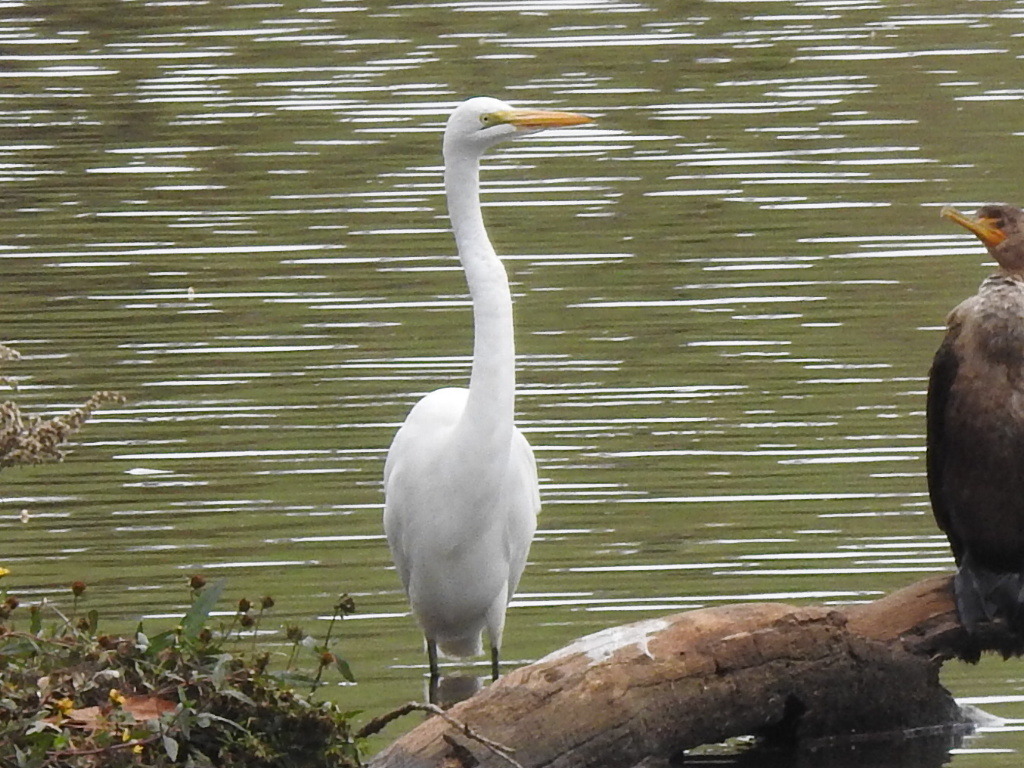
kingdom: Animalia
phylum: Chordata
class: Aves
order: Pelecaniformes
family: Ardeidae
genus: Ardea
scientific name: Ardea alba
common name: Great egret
